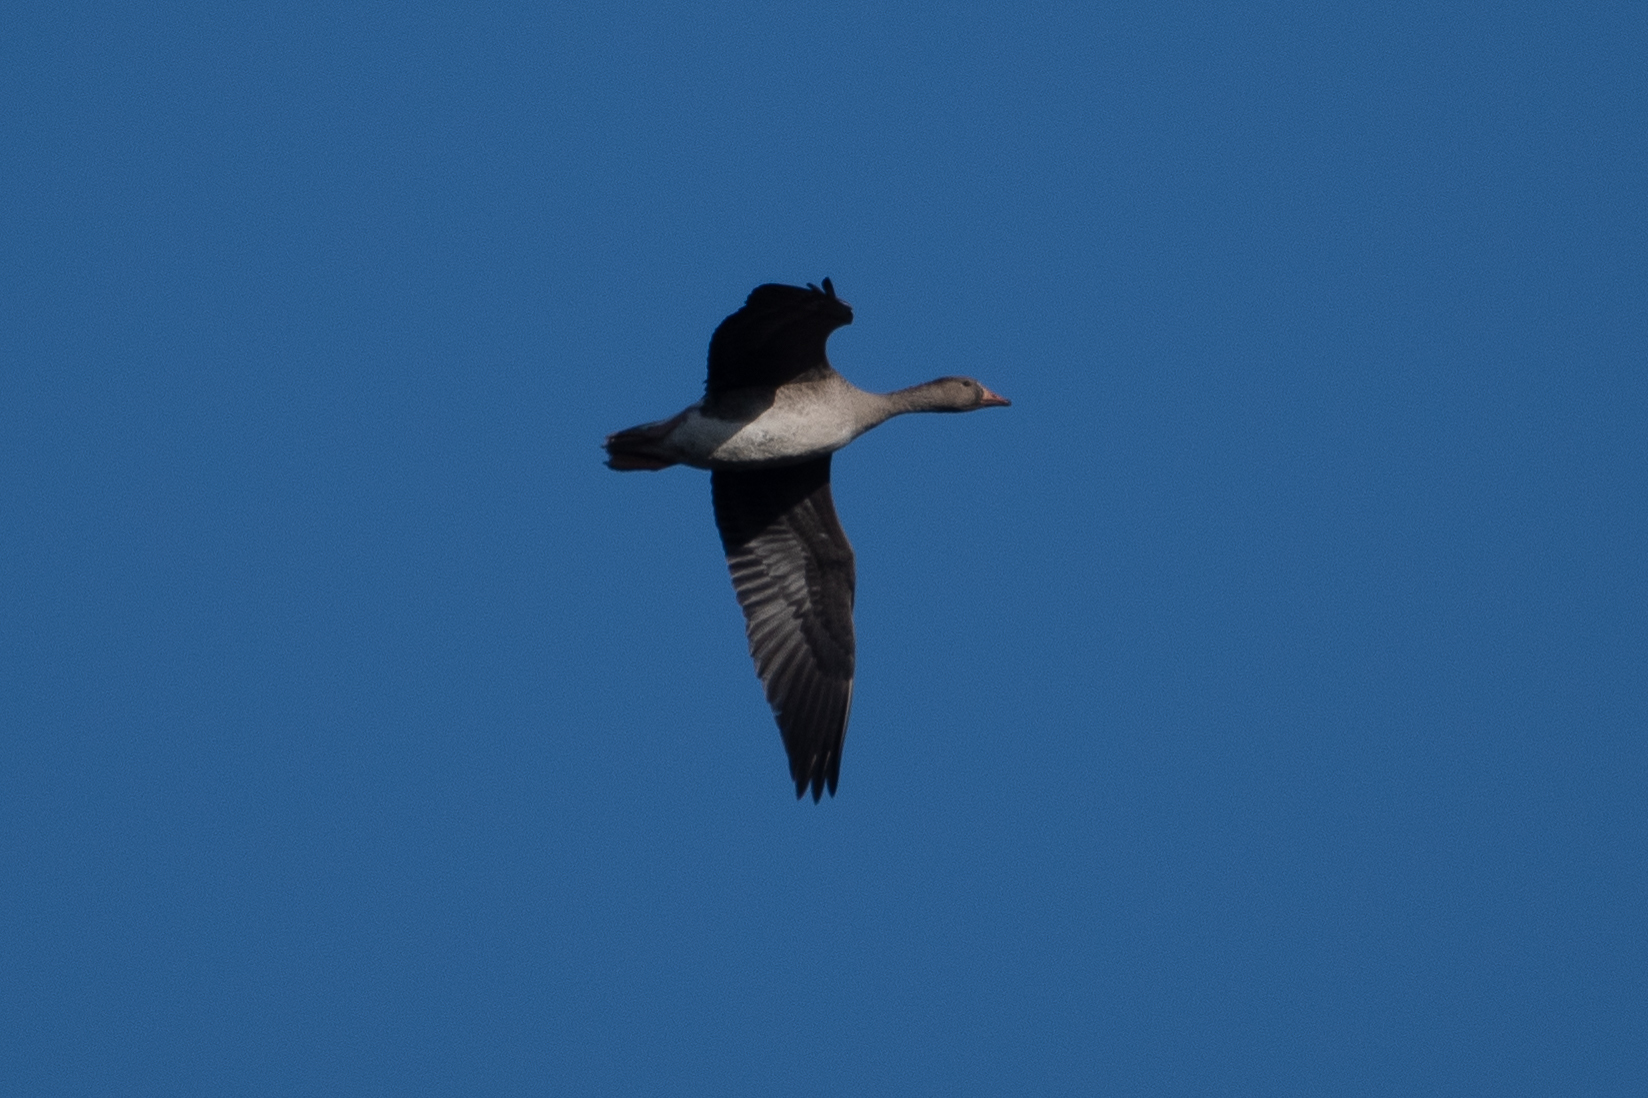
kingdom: Animalia
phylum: Chordata
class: Aves
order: Anseriformes
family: Anatidae
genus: Anser
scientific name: Anser albifrons
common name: Greater white-fronted goose
